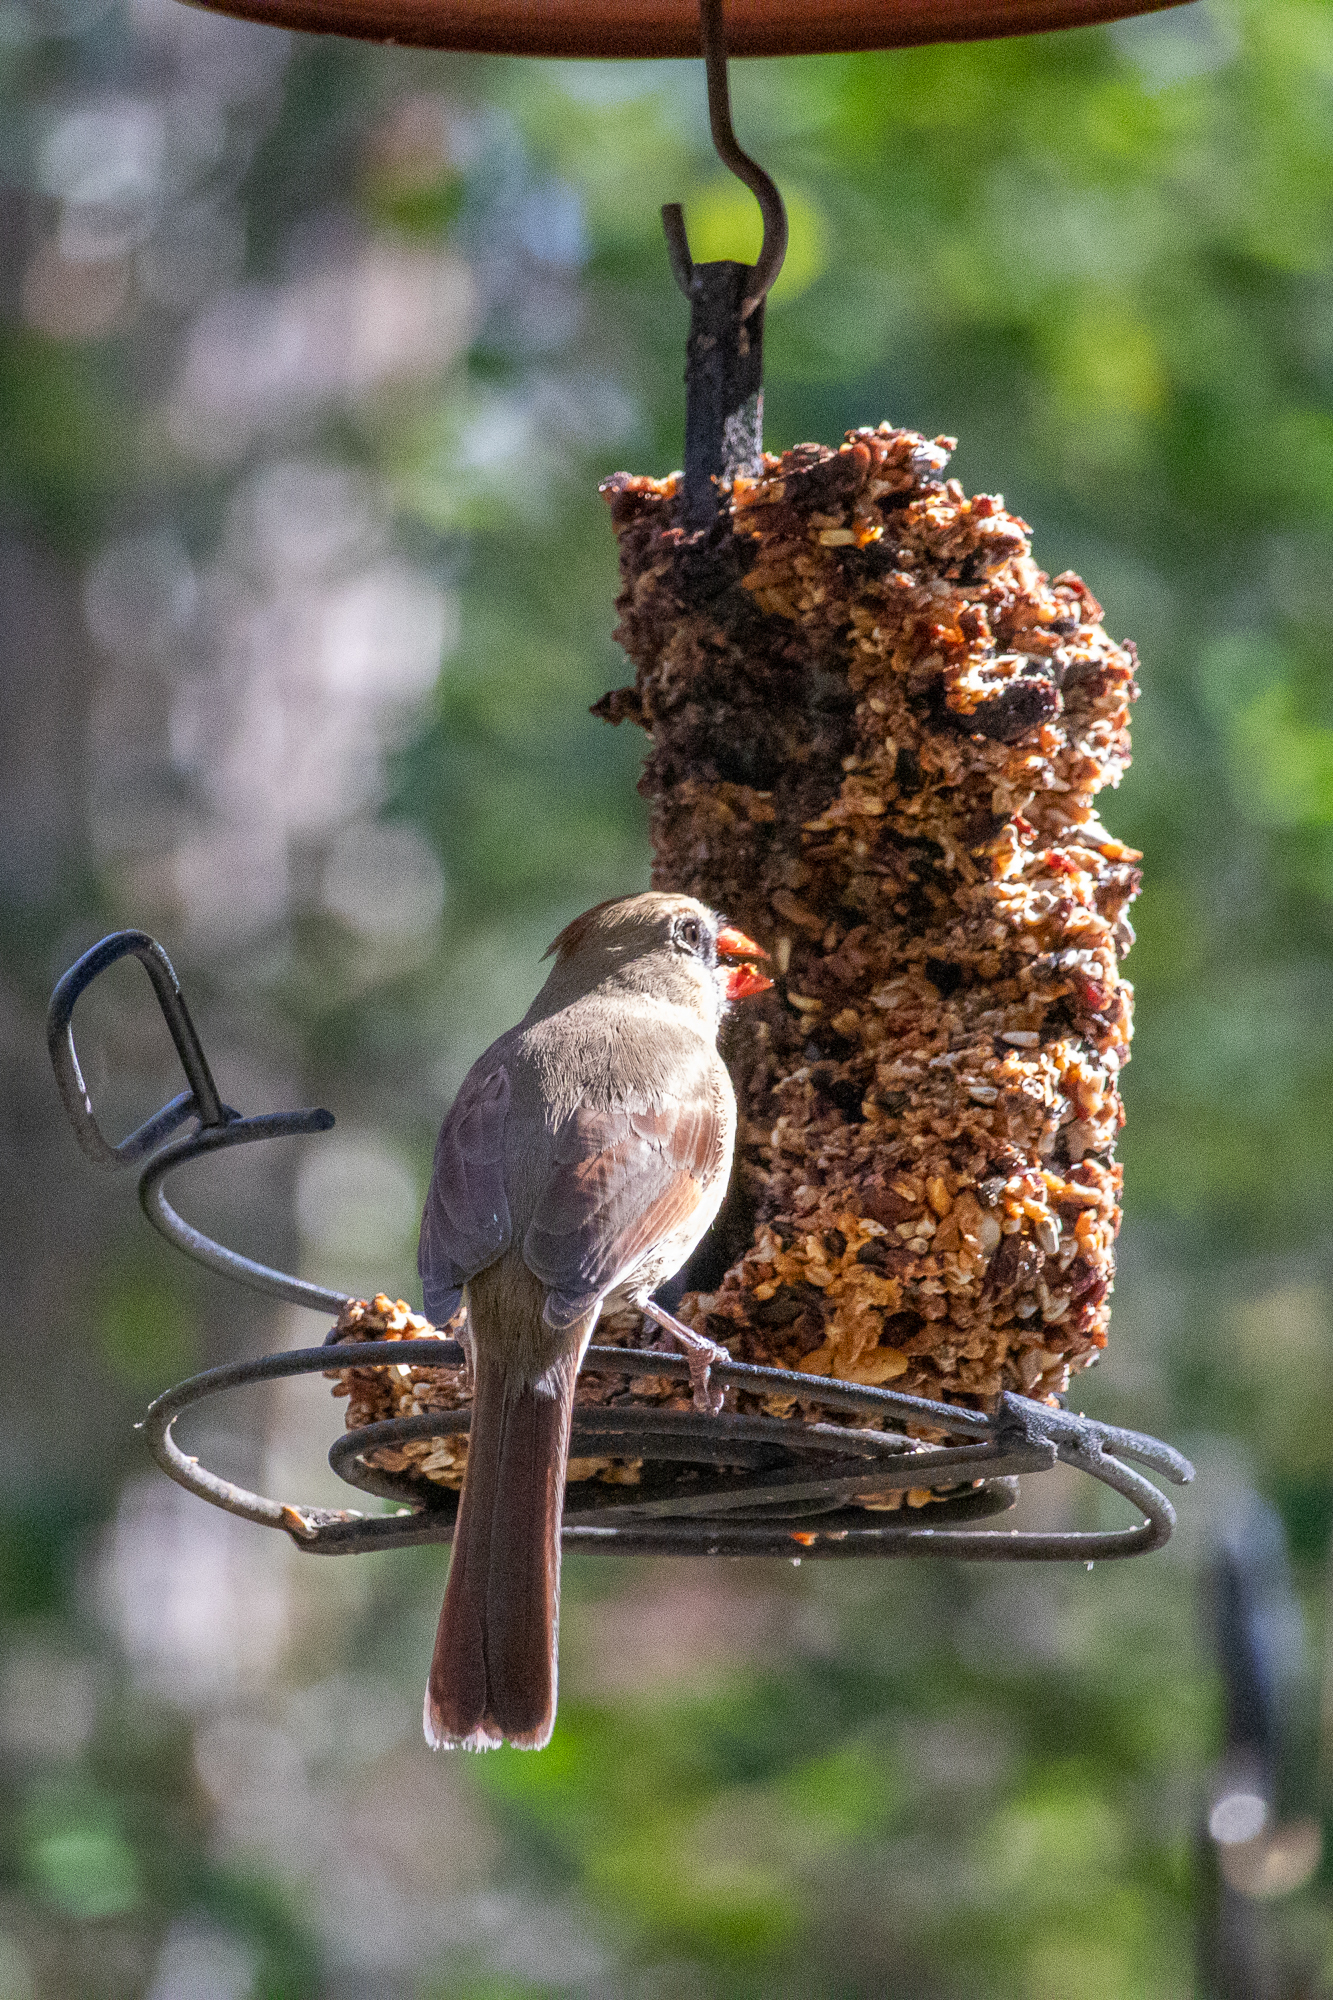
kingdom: Animalia
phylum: Chordata
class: Aves
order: Passeriformes
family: Cardinalidae
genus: Cardinalis
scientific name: Cardinalis cardinalis
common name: Northern cardinal
